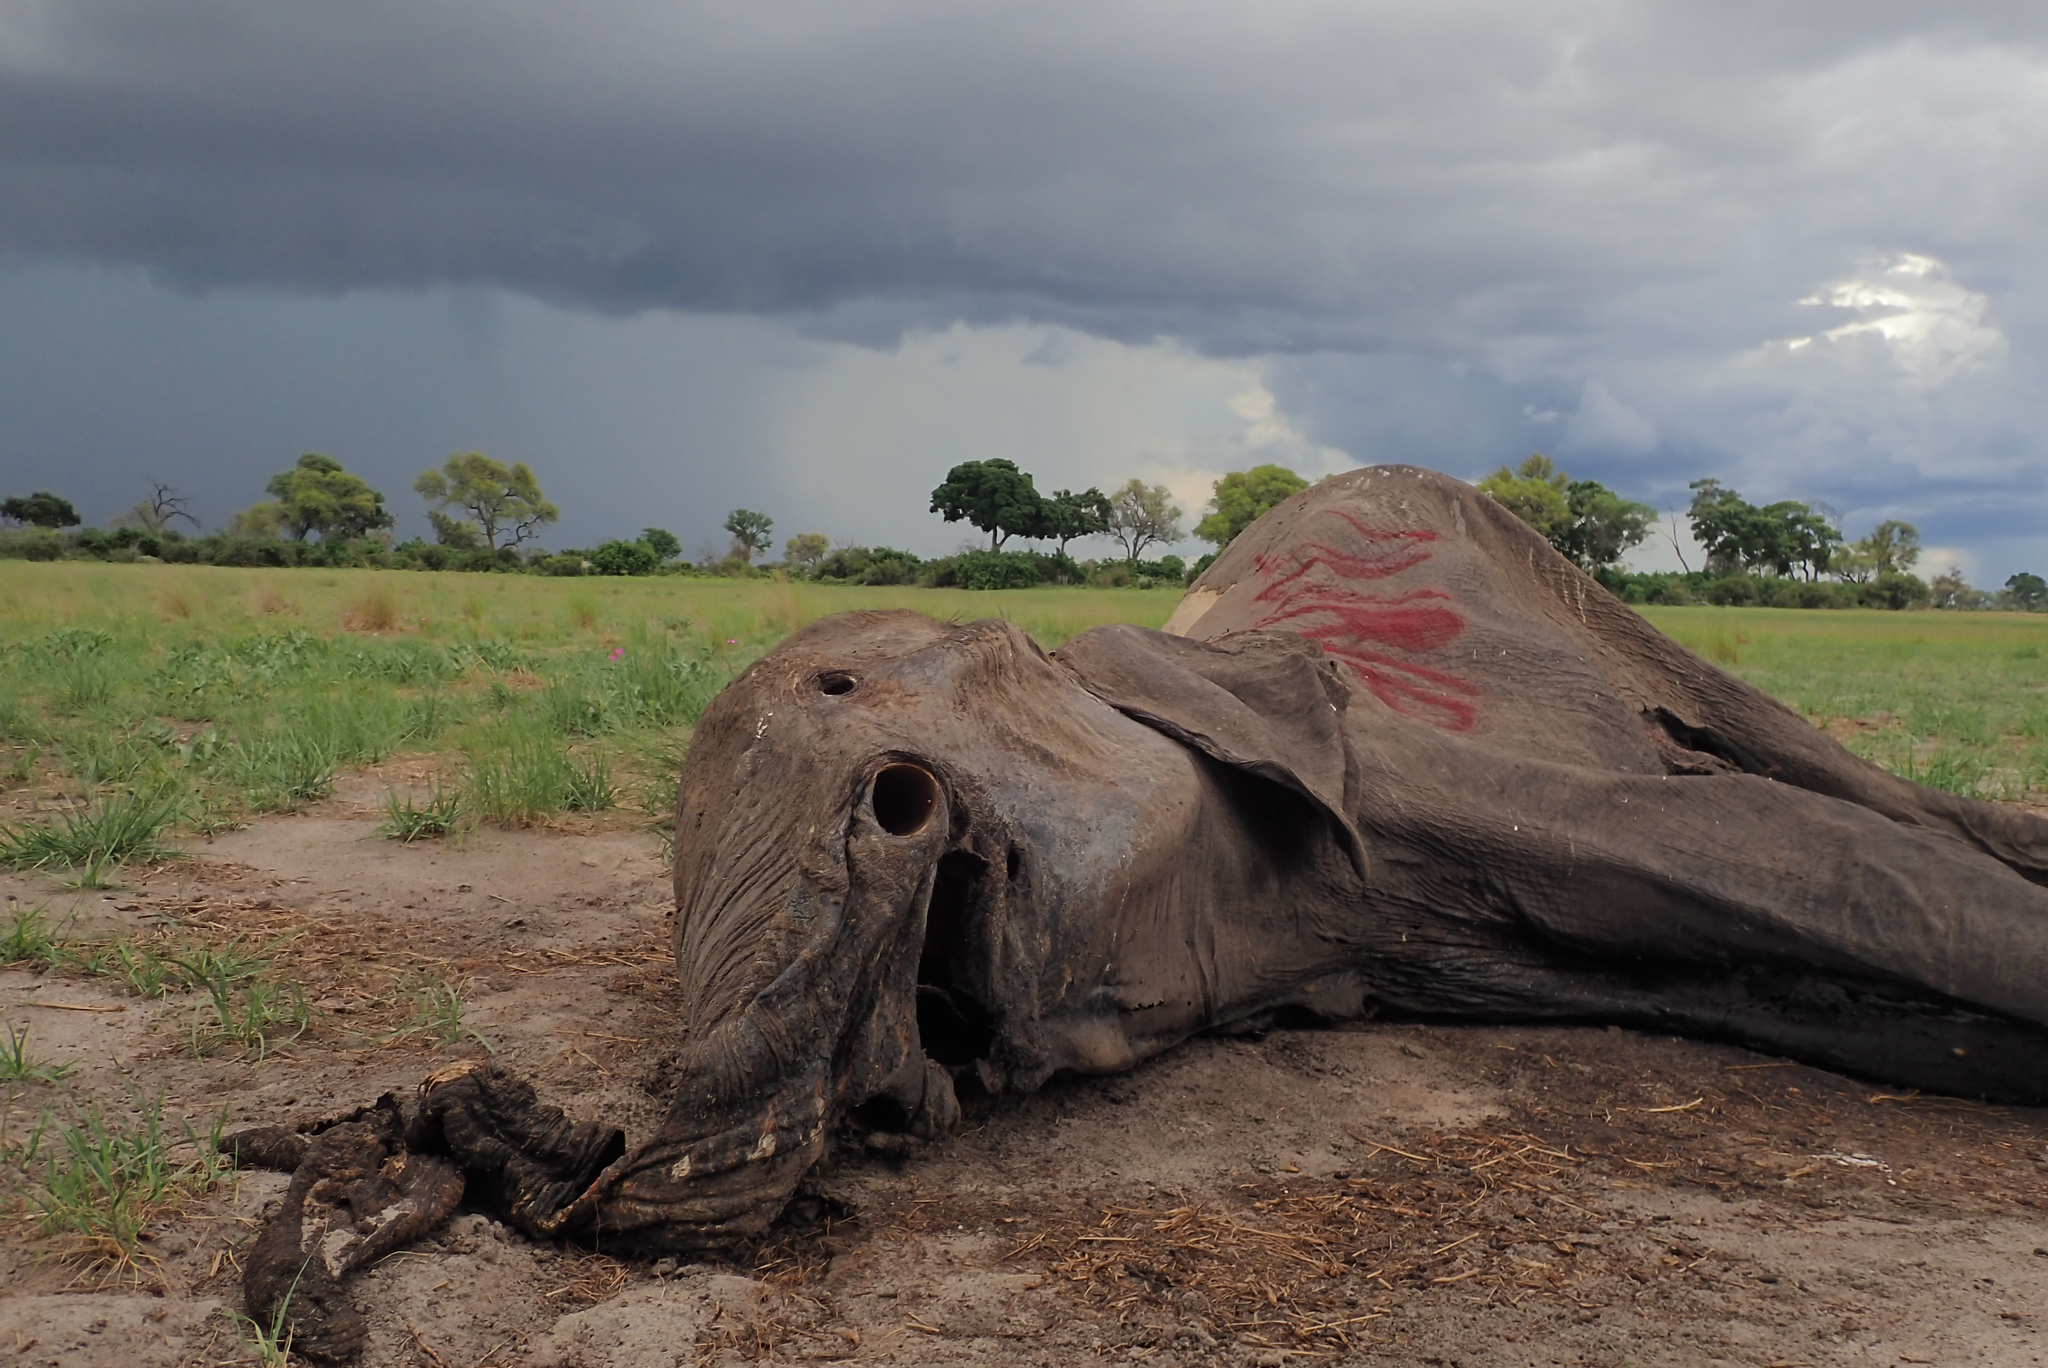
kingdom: Animalia
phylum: Chordata
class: Mammalia
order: Proboscidea
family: Elephantidae
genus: Loxodonta
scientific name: Loxodonta africana
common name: African elephant
